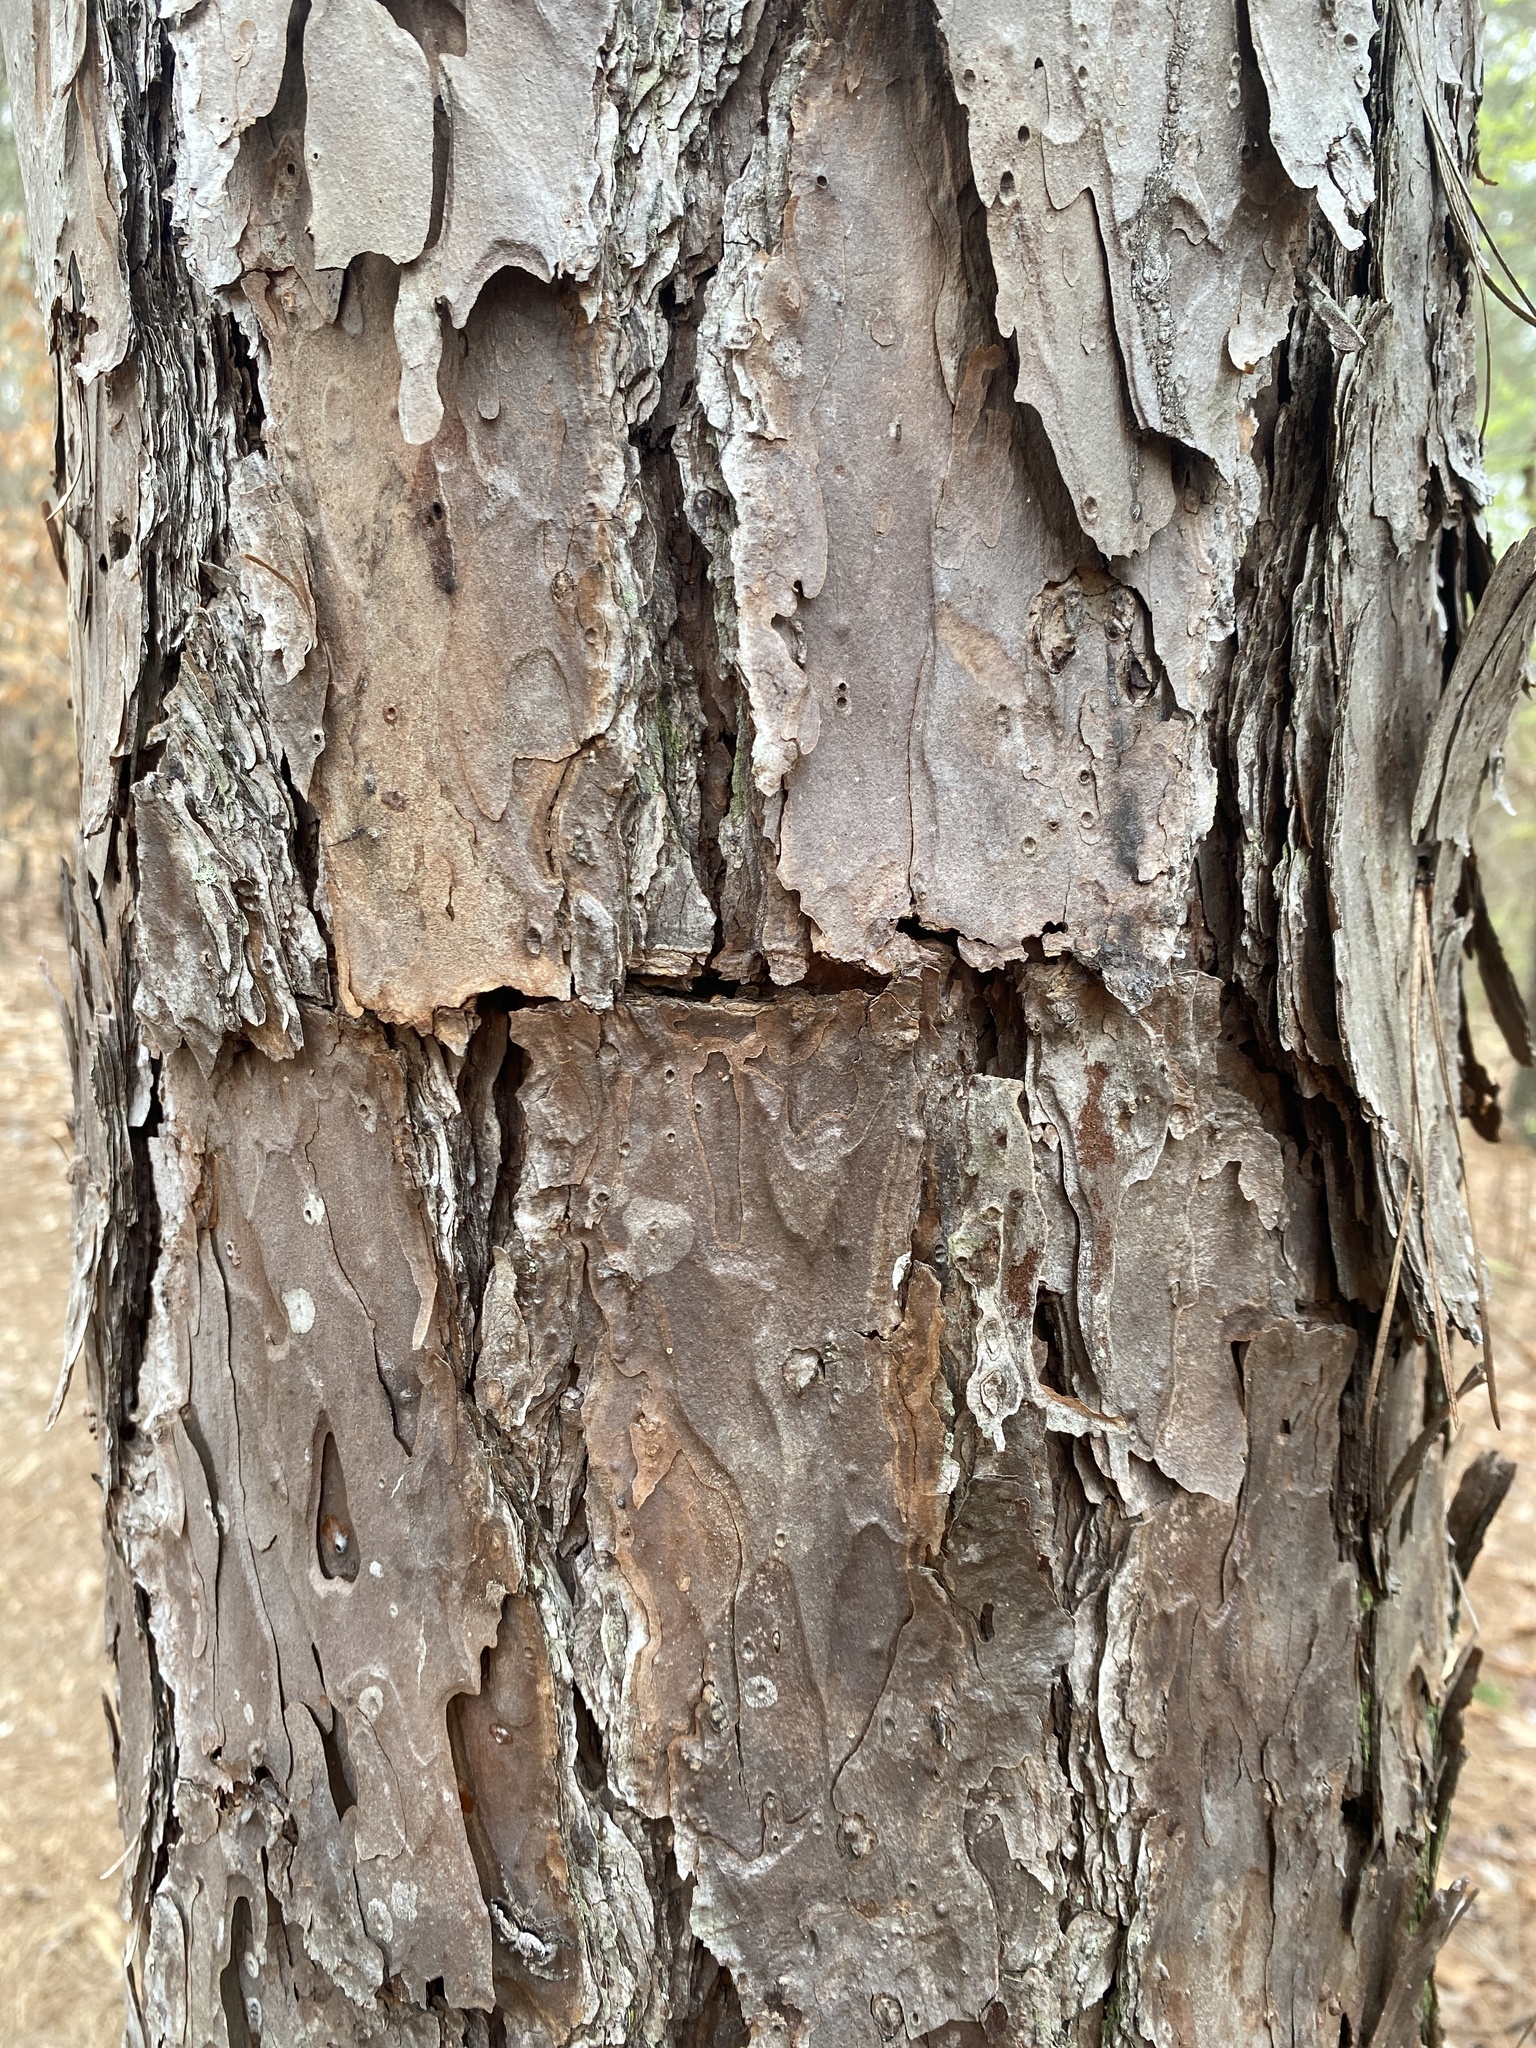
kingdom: Plantae
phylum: Tracheophyta
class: Pinopsida
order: Pinales
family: Pinaceae
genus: Pinus
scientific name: Pinus echinata
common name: Shortleaf pine
